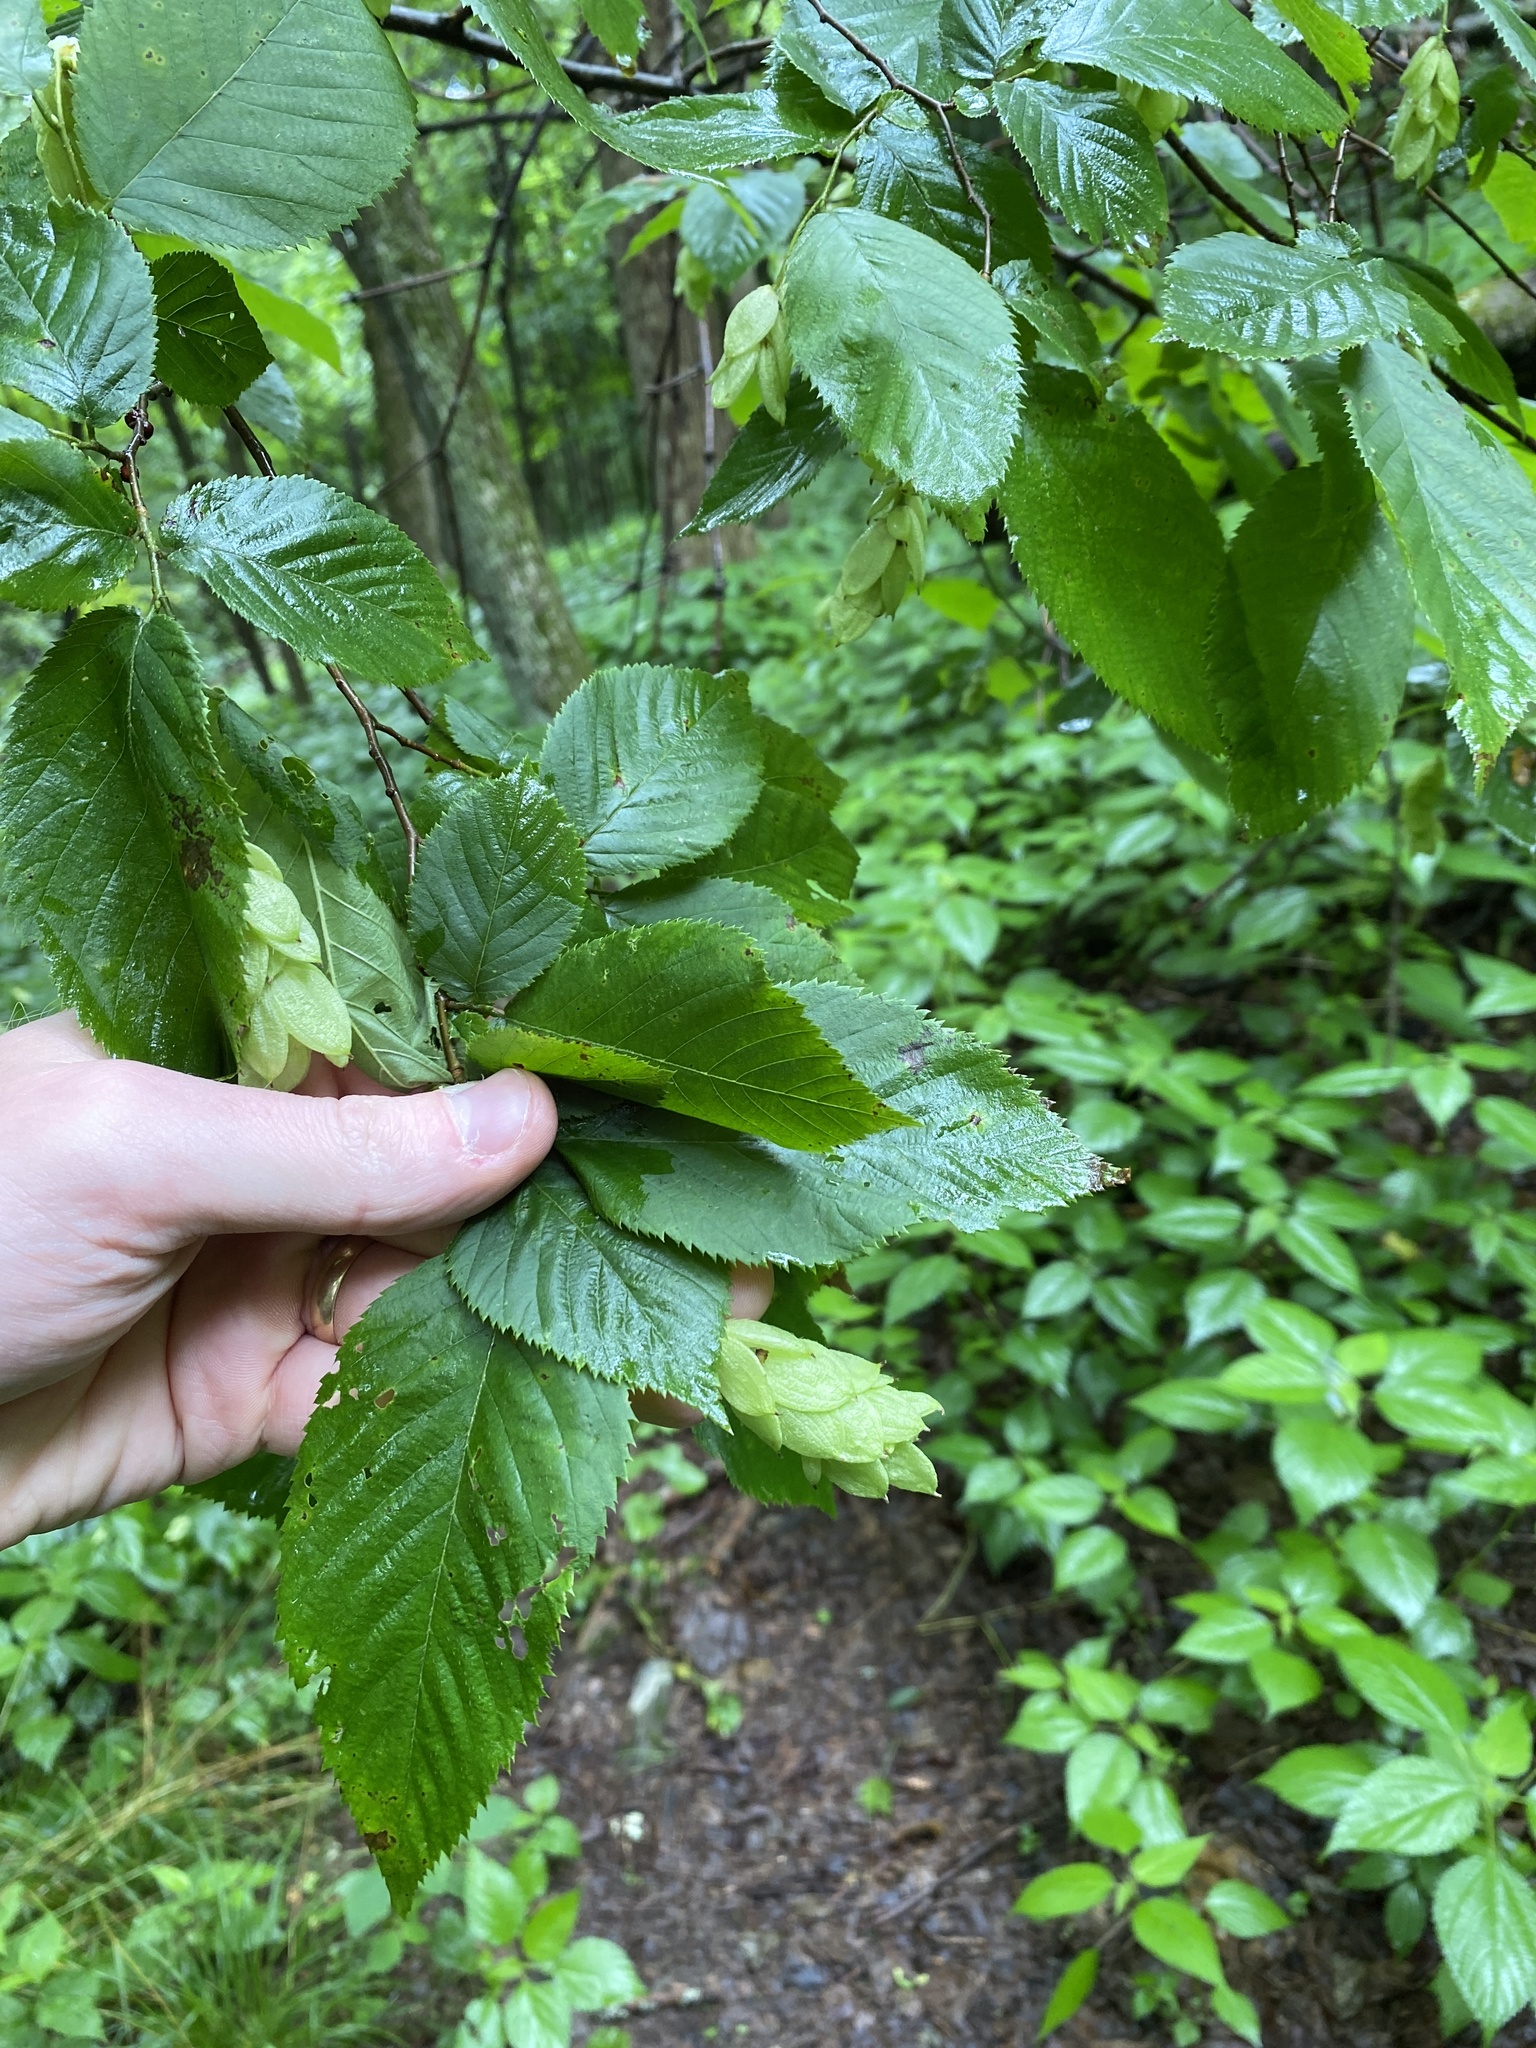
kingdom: Plantae
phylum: Tracheophyta
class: Magnoliopsida
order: Fagales
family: Betulaceae
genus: Ostrya
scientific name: Ostrya virginiana
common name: Ironwood
